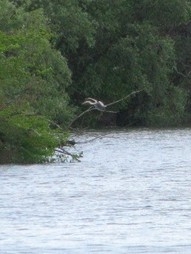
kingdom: Animalia
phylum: Chordata
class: Aves
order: Pelecaniformes
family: Ardeidae
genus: Ardea
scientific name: Ardea cinerea
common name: Grey heron
